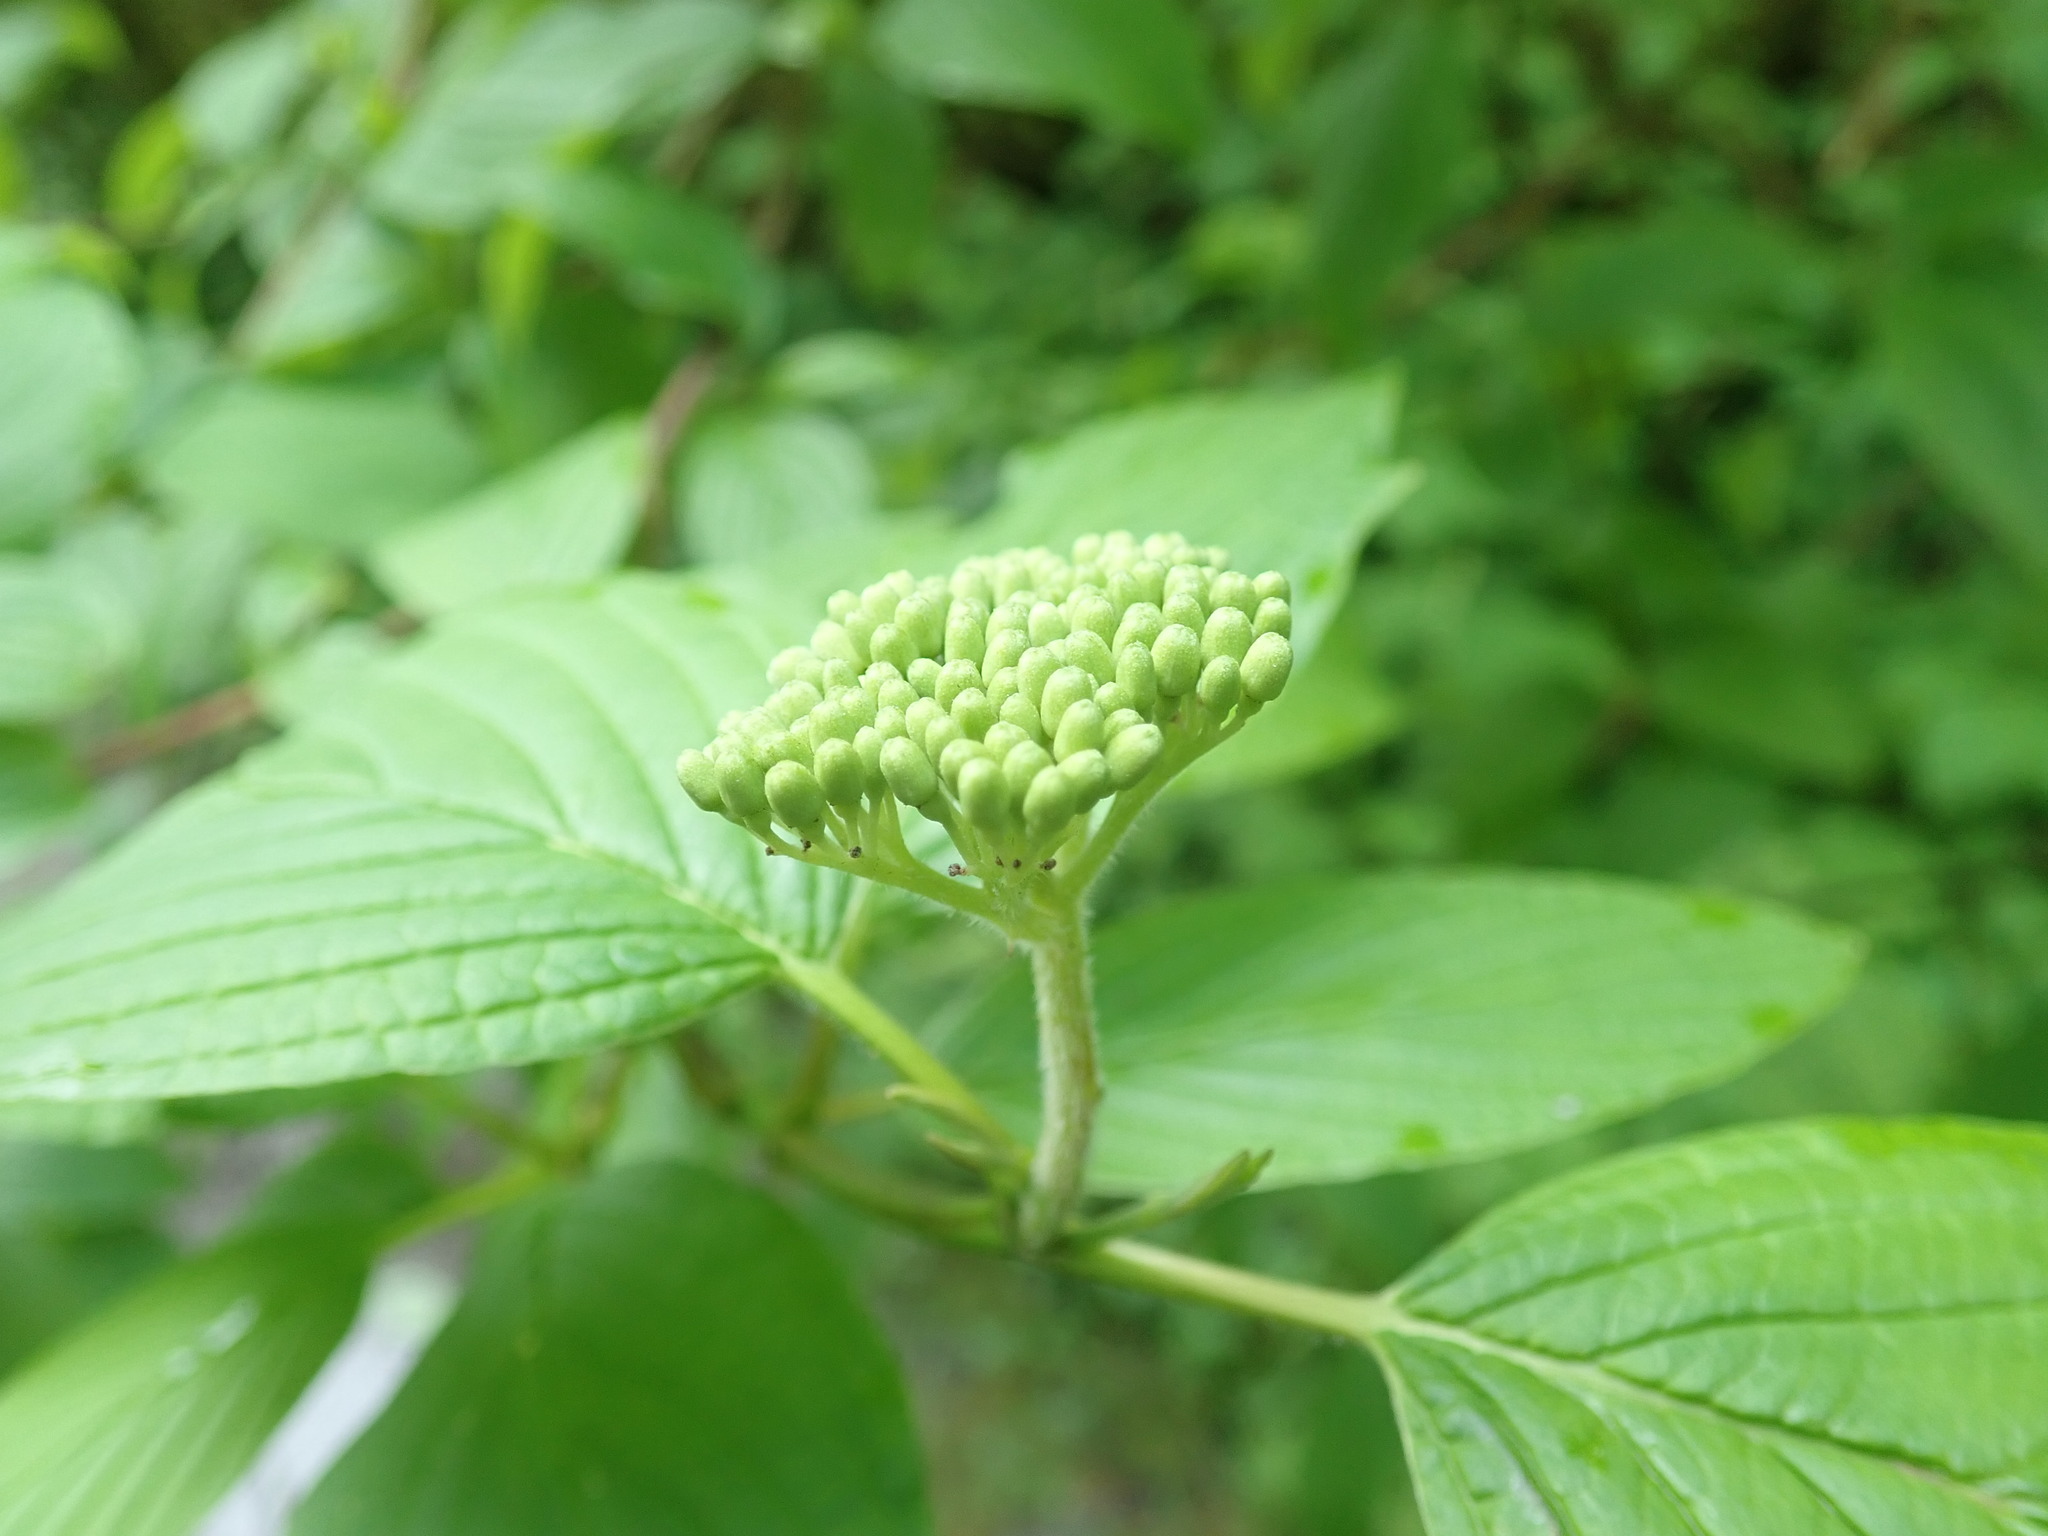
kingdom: Plantae
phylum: Tracheophyta
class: Magnoliopsida
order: Cornales
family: Cornaceae
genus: Cornus
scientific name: Cornus sericea
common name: Red-osier dogwood
